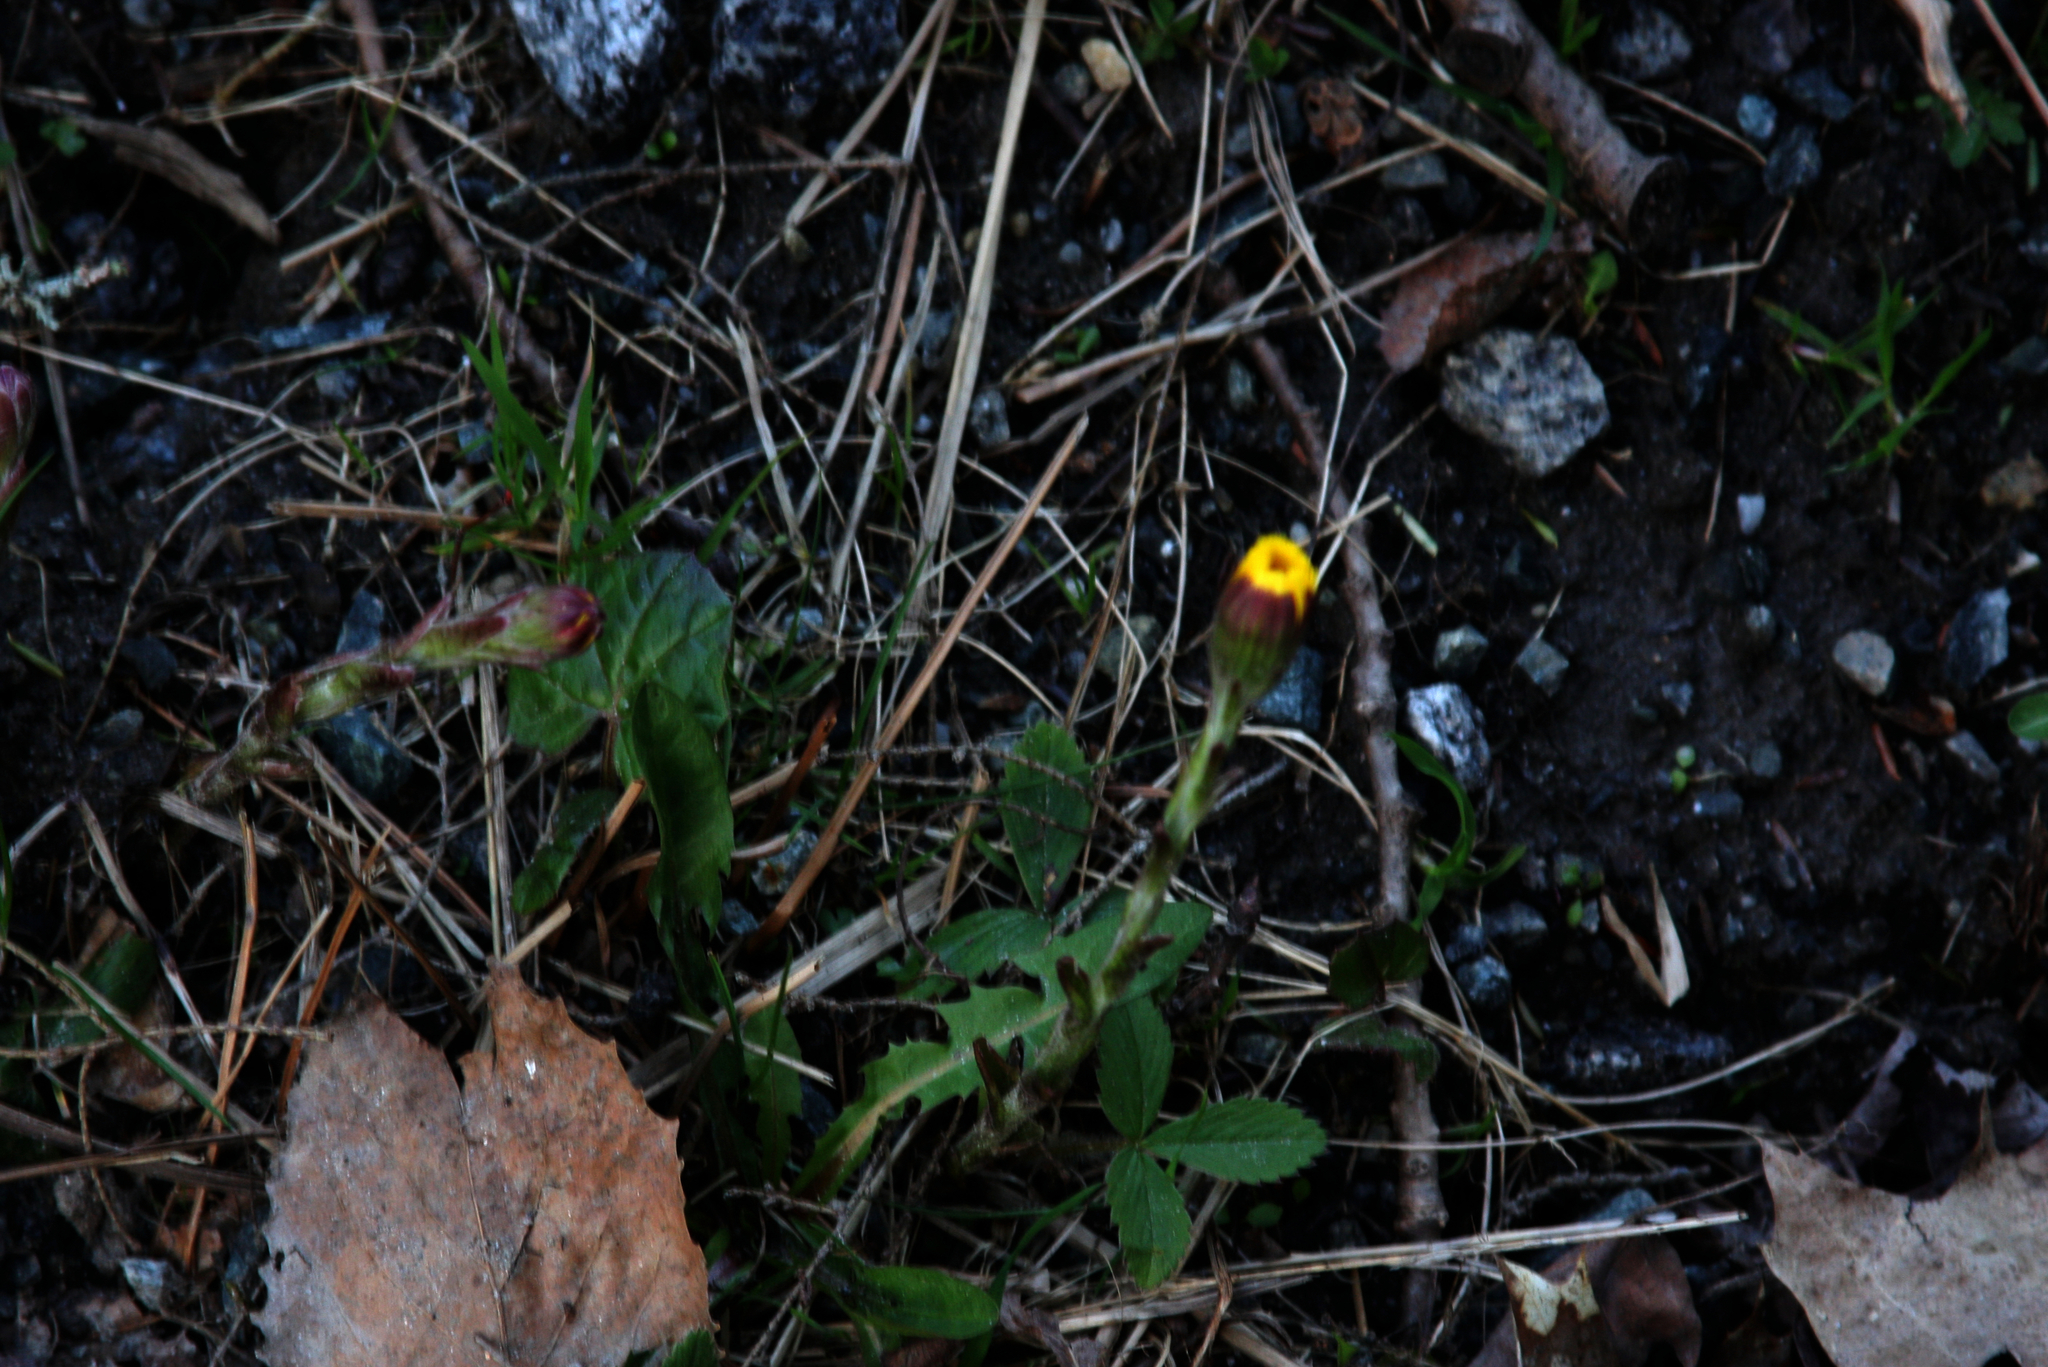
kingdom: Plantae
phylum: Tracheophyta
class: Magnoliopsida
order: Asterales
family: Asteraceae
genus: Tussilago
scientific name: Tussilago farfara
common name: Coltsfoot
